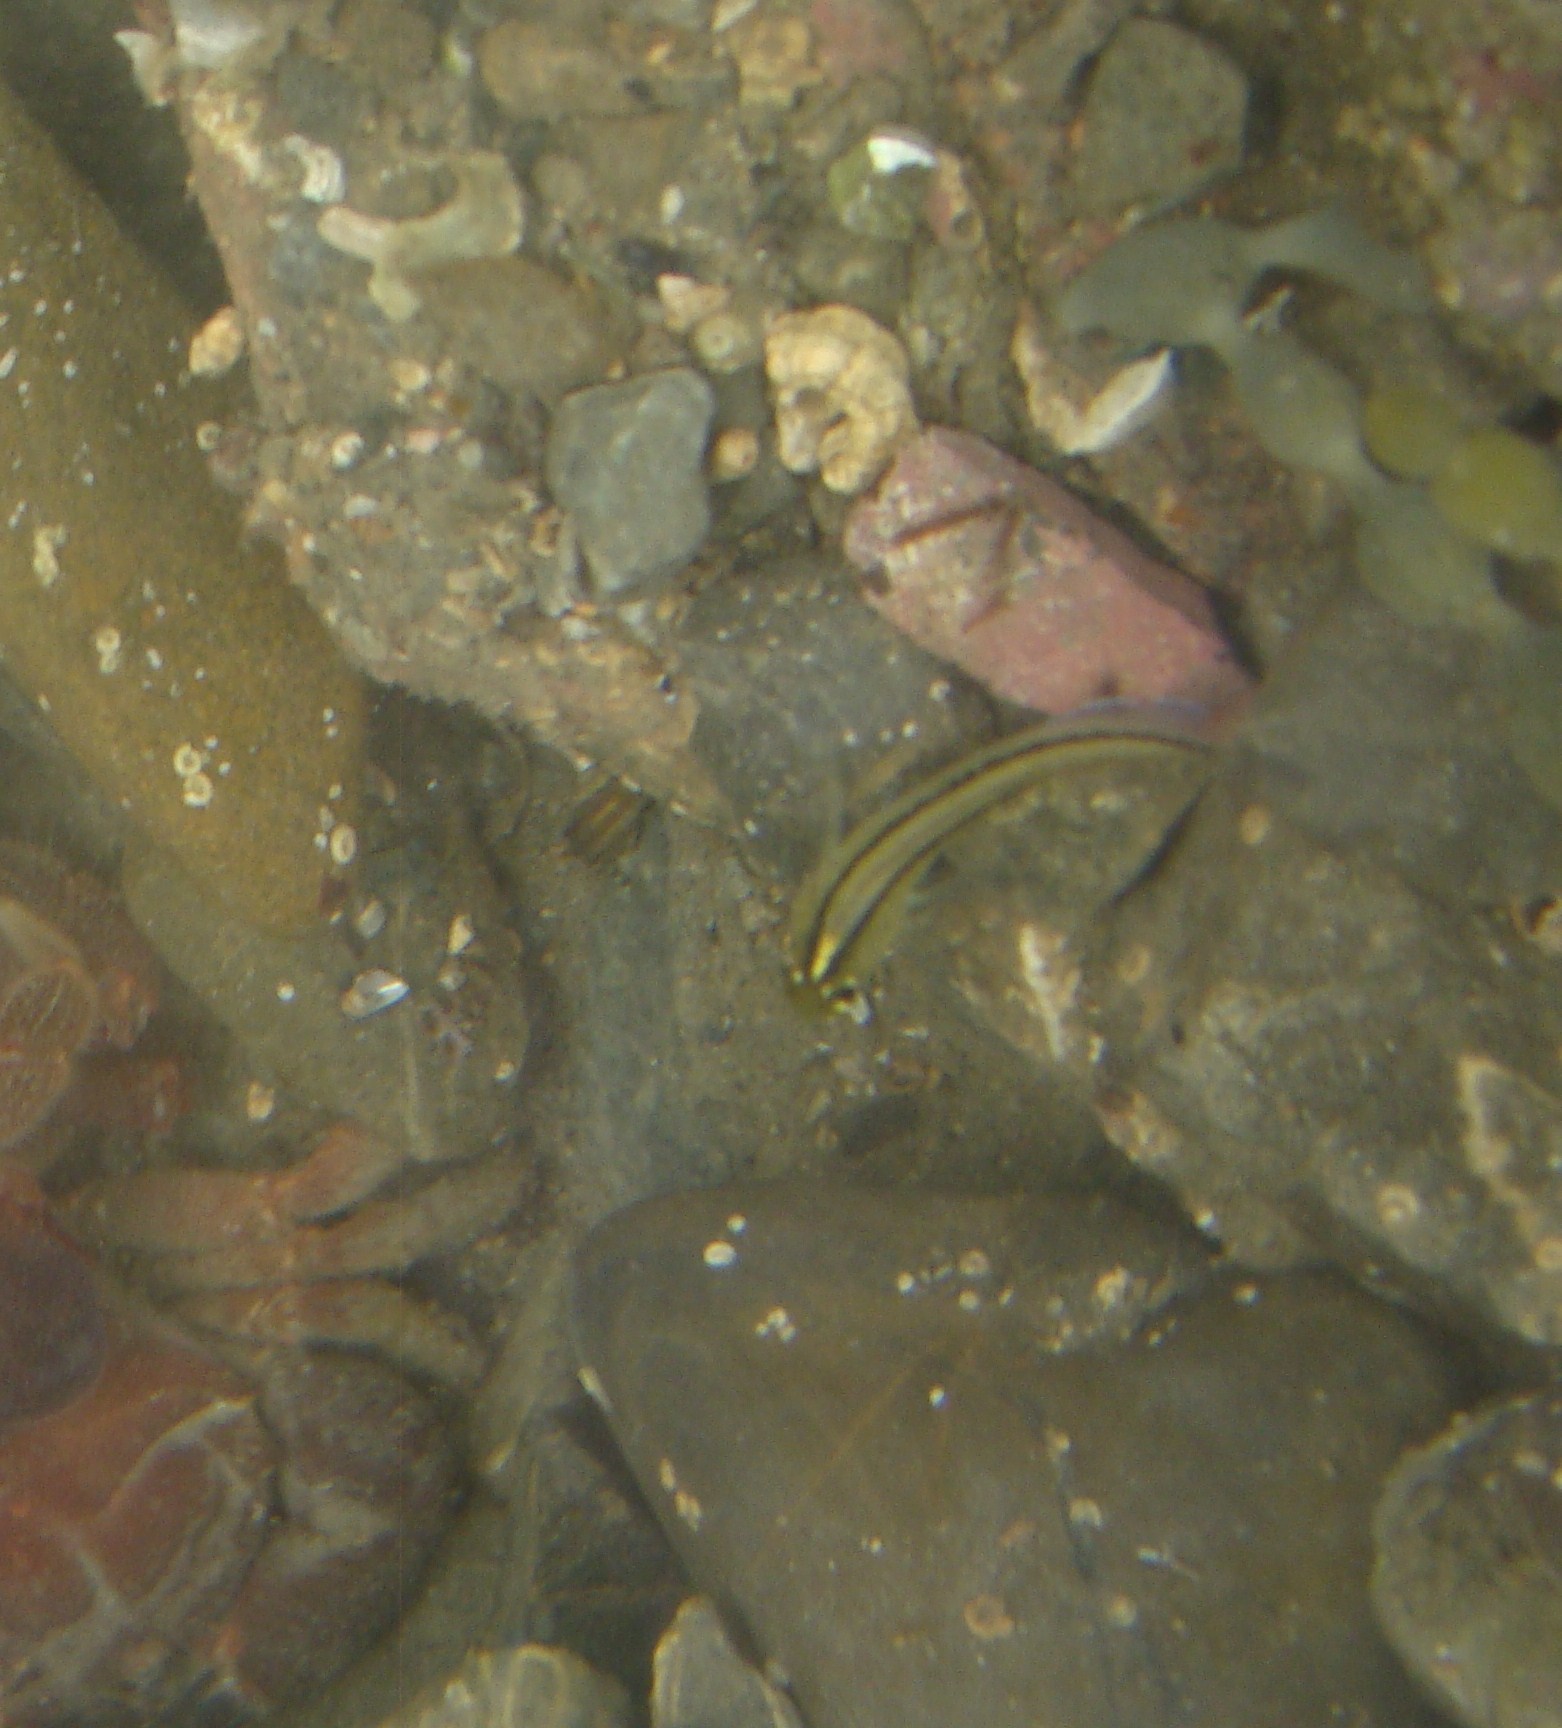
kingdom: Animalia
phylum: Chordata
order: Perciformes
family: Tripterygiidae
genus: Forsterygion
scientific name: Forsterygion lapillum
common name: Common triplefin
